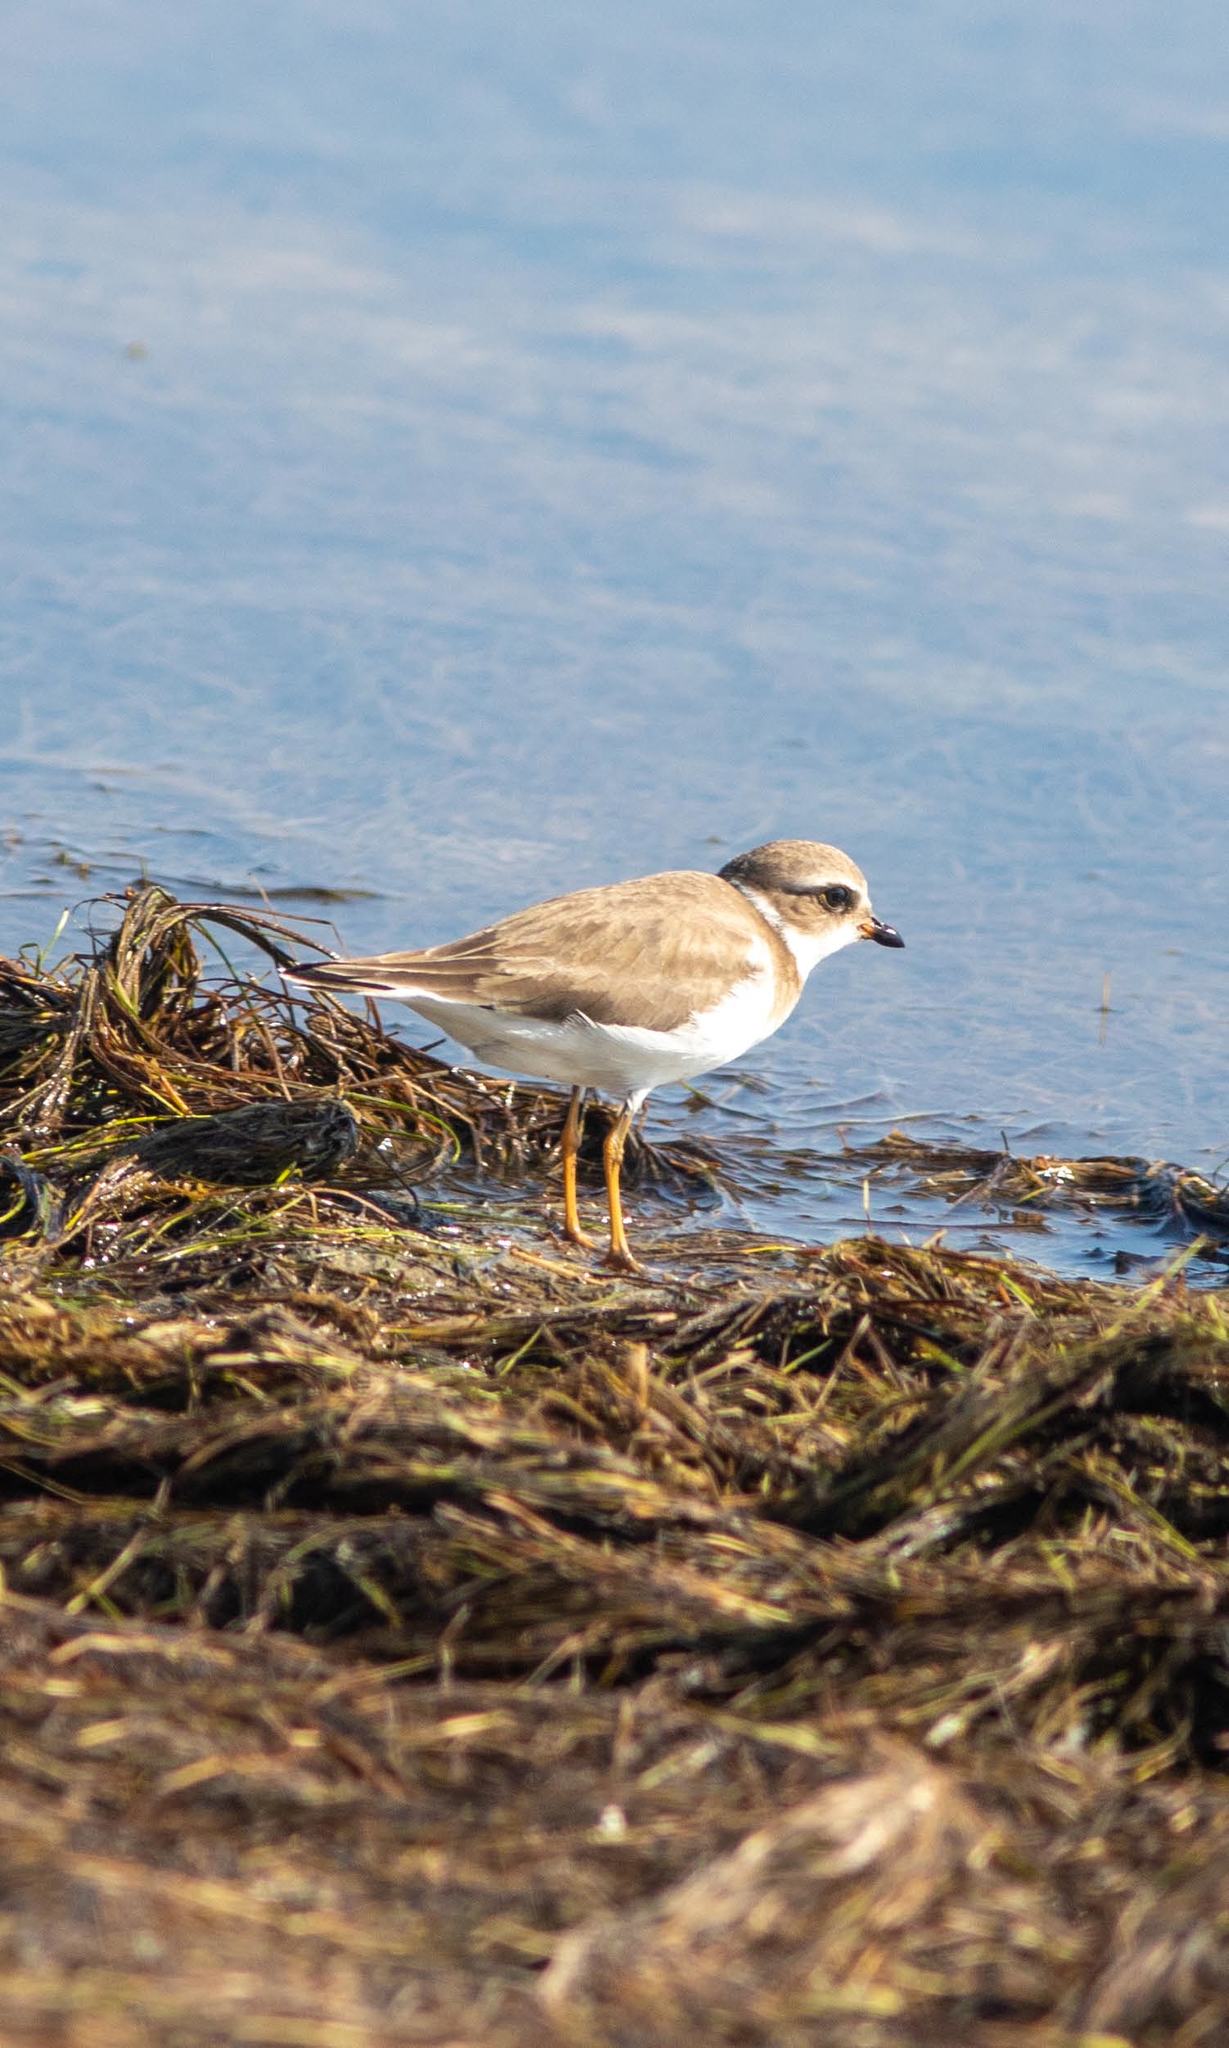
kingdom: Animalia
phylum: Chordata
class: Aves
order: Charadriiformes
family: Charadriidae
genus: Charadrius
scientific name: Charadrius semipalmatus
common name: Semipalmated plover
